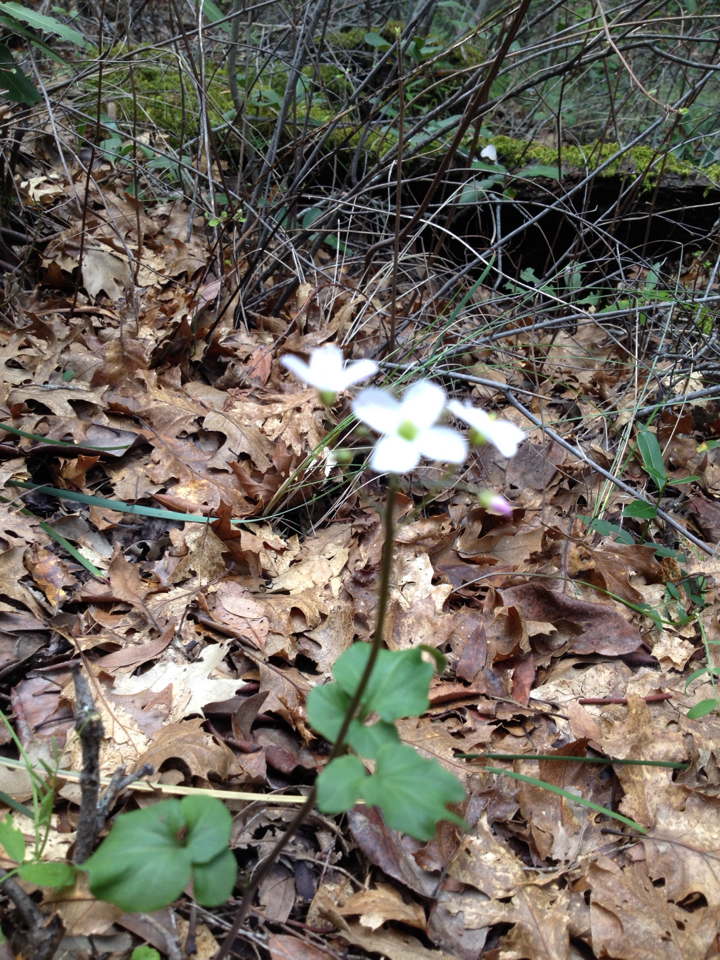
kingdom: Plantae
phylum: Tracheophyta
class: Magnoliopsida
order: Brassicales
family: Brassicaceae
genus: Cardamine
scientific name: Cardamine californica
